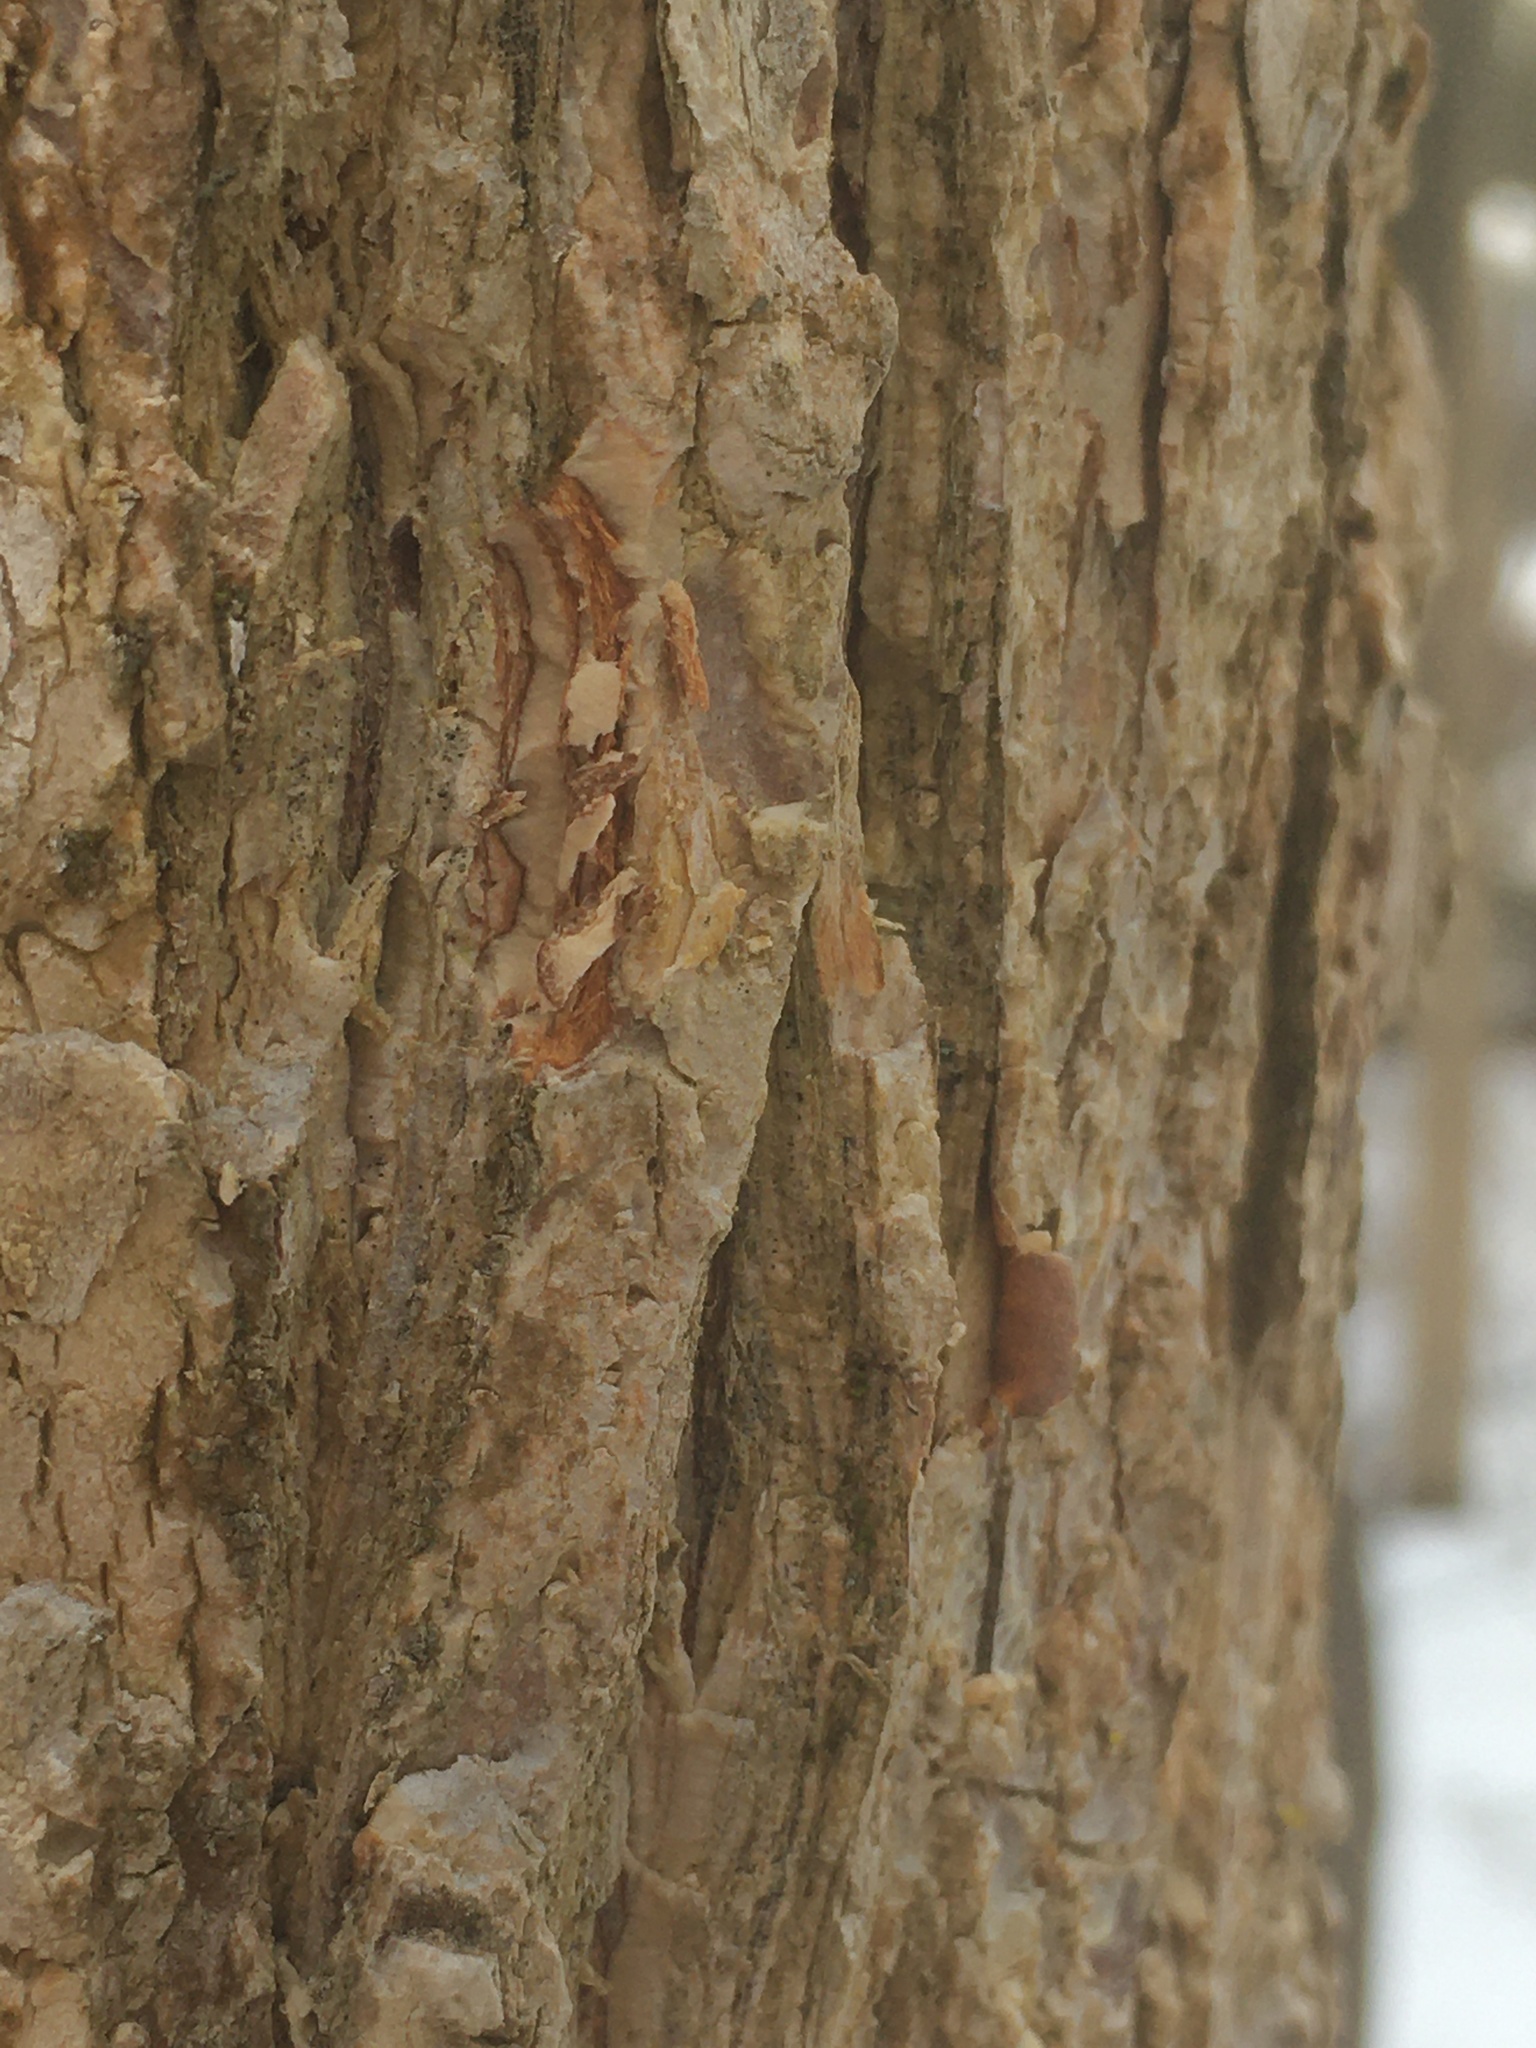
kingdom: Plantae
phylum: Tracheophyta
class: Magnoliopsida
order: Rosales
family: Ulmaceae
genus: Ulmus
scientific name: Ulmus americana
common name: American elm
